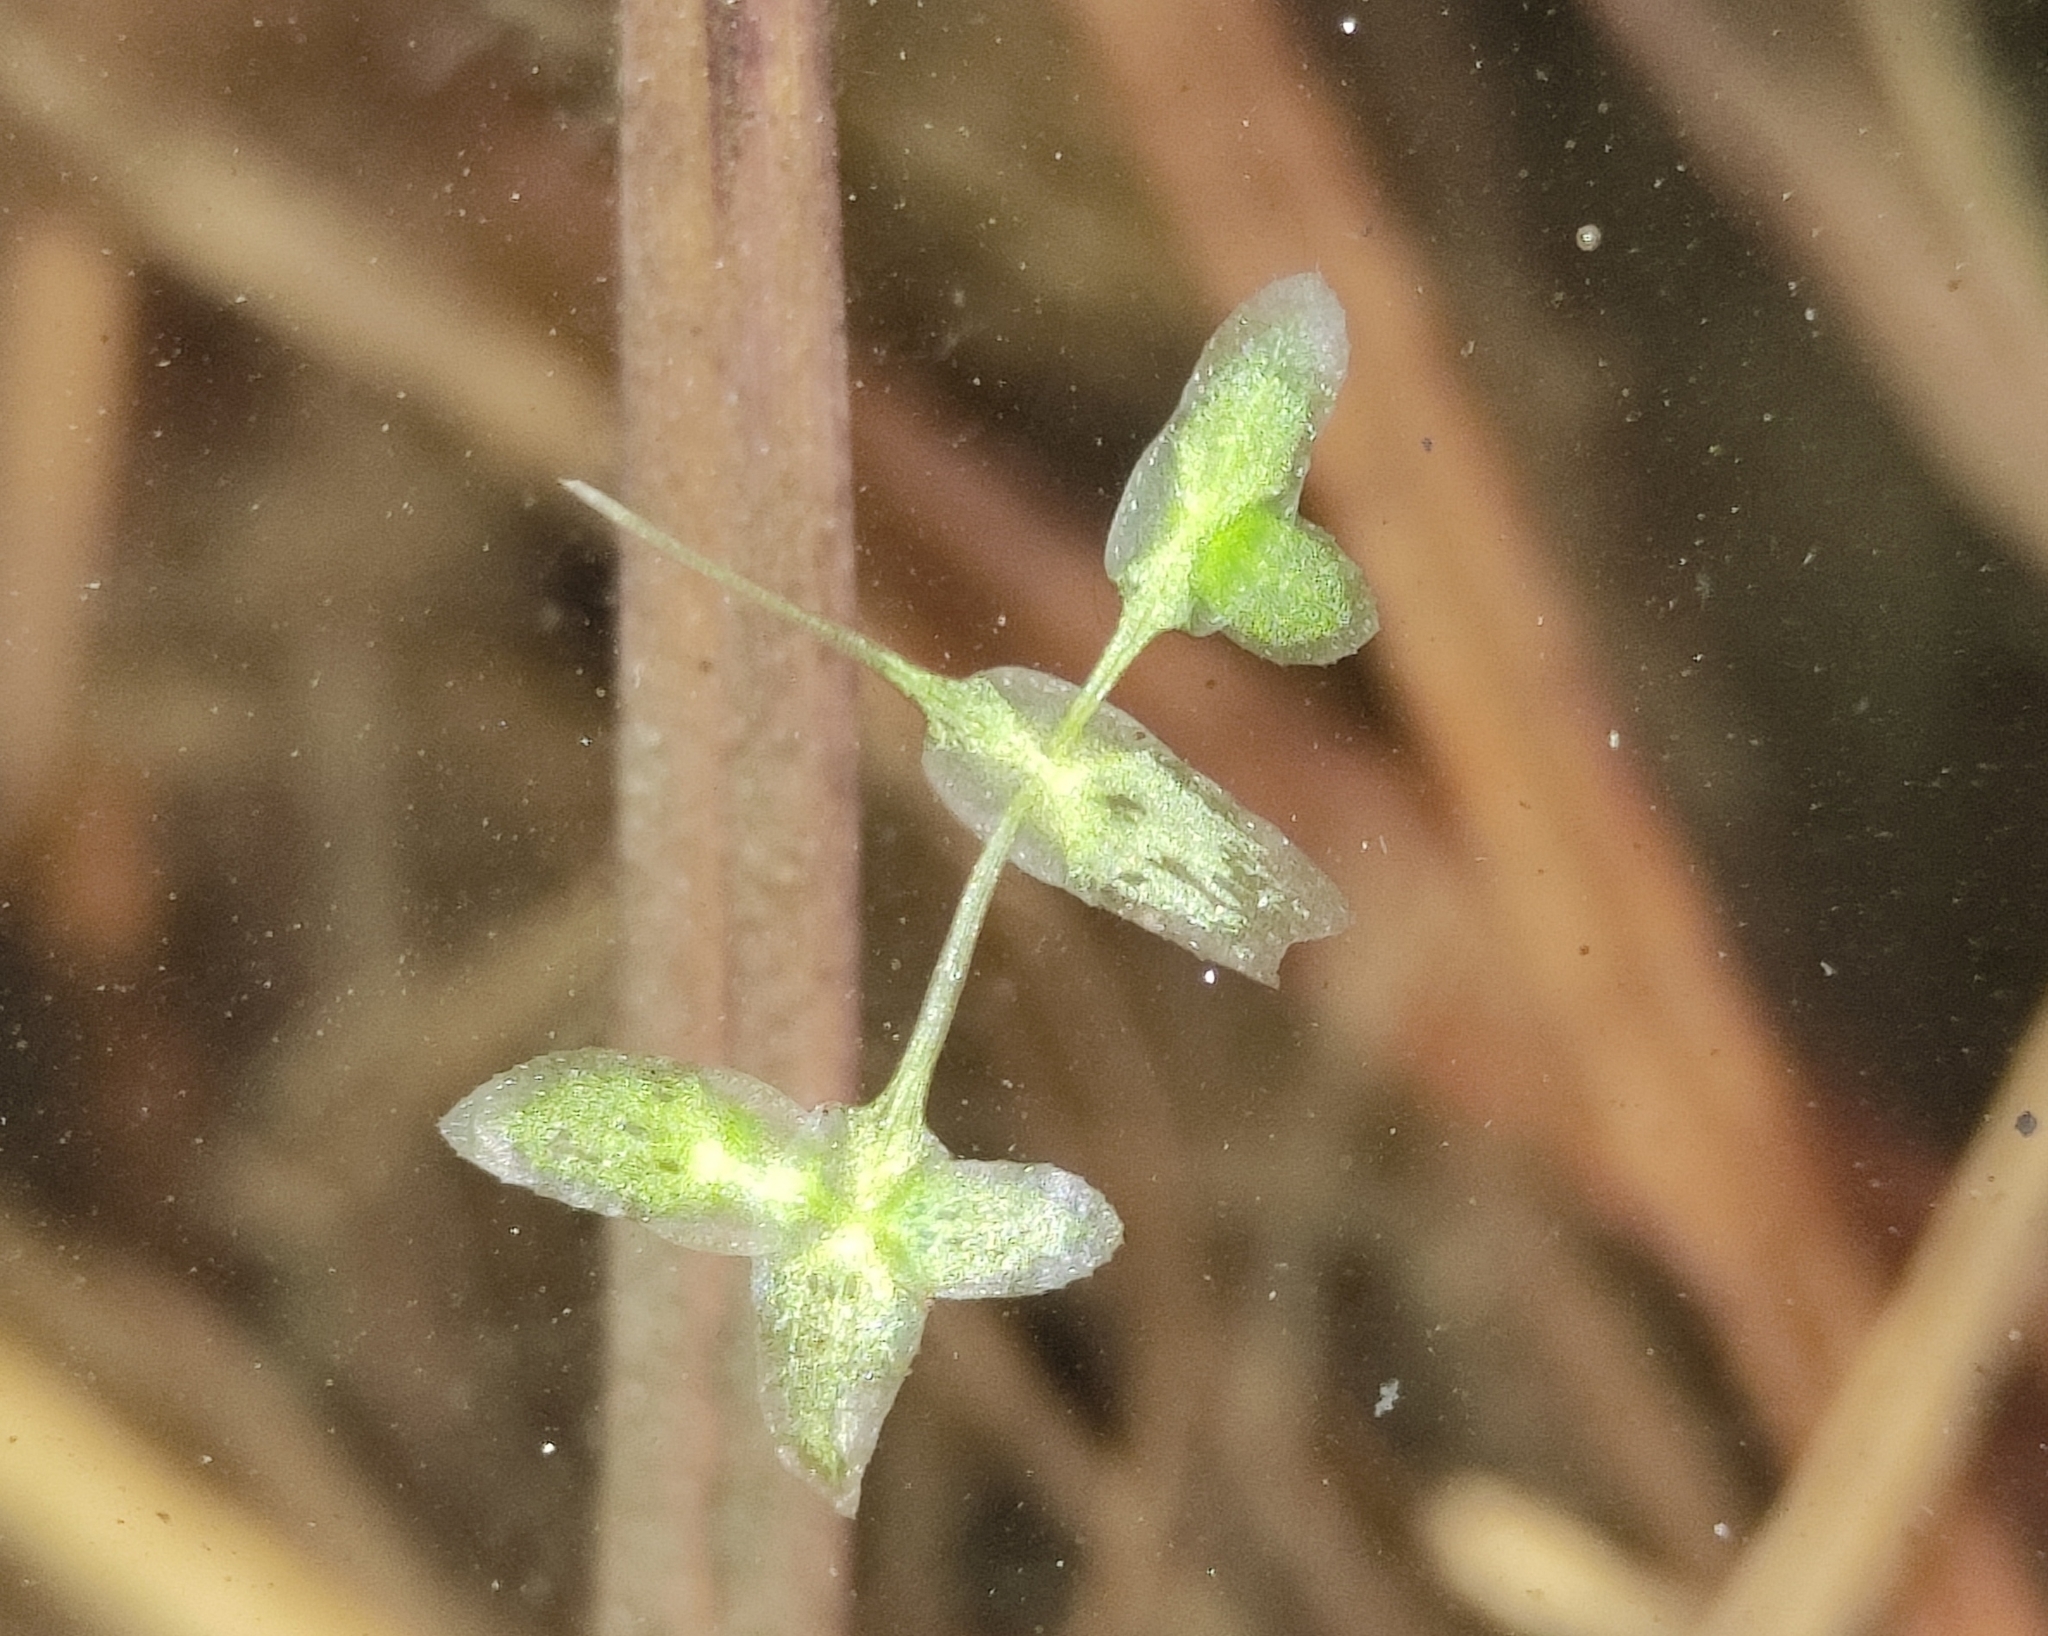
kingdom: Plantae
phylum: Tracheophyta
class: Liliopsida
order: Alismatales
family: Araceae
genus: Lemna
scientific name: Lemna trisulca
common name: Ivy-leaved duckweed
